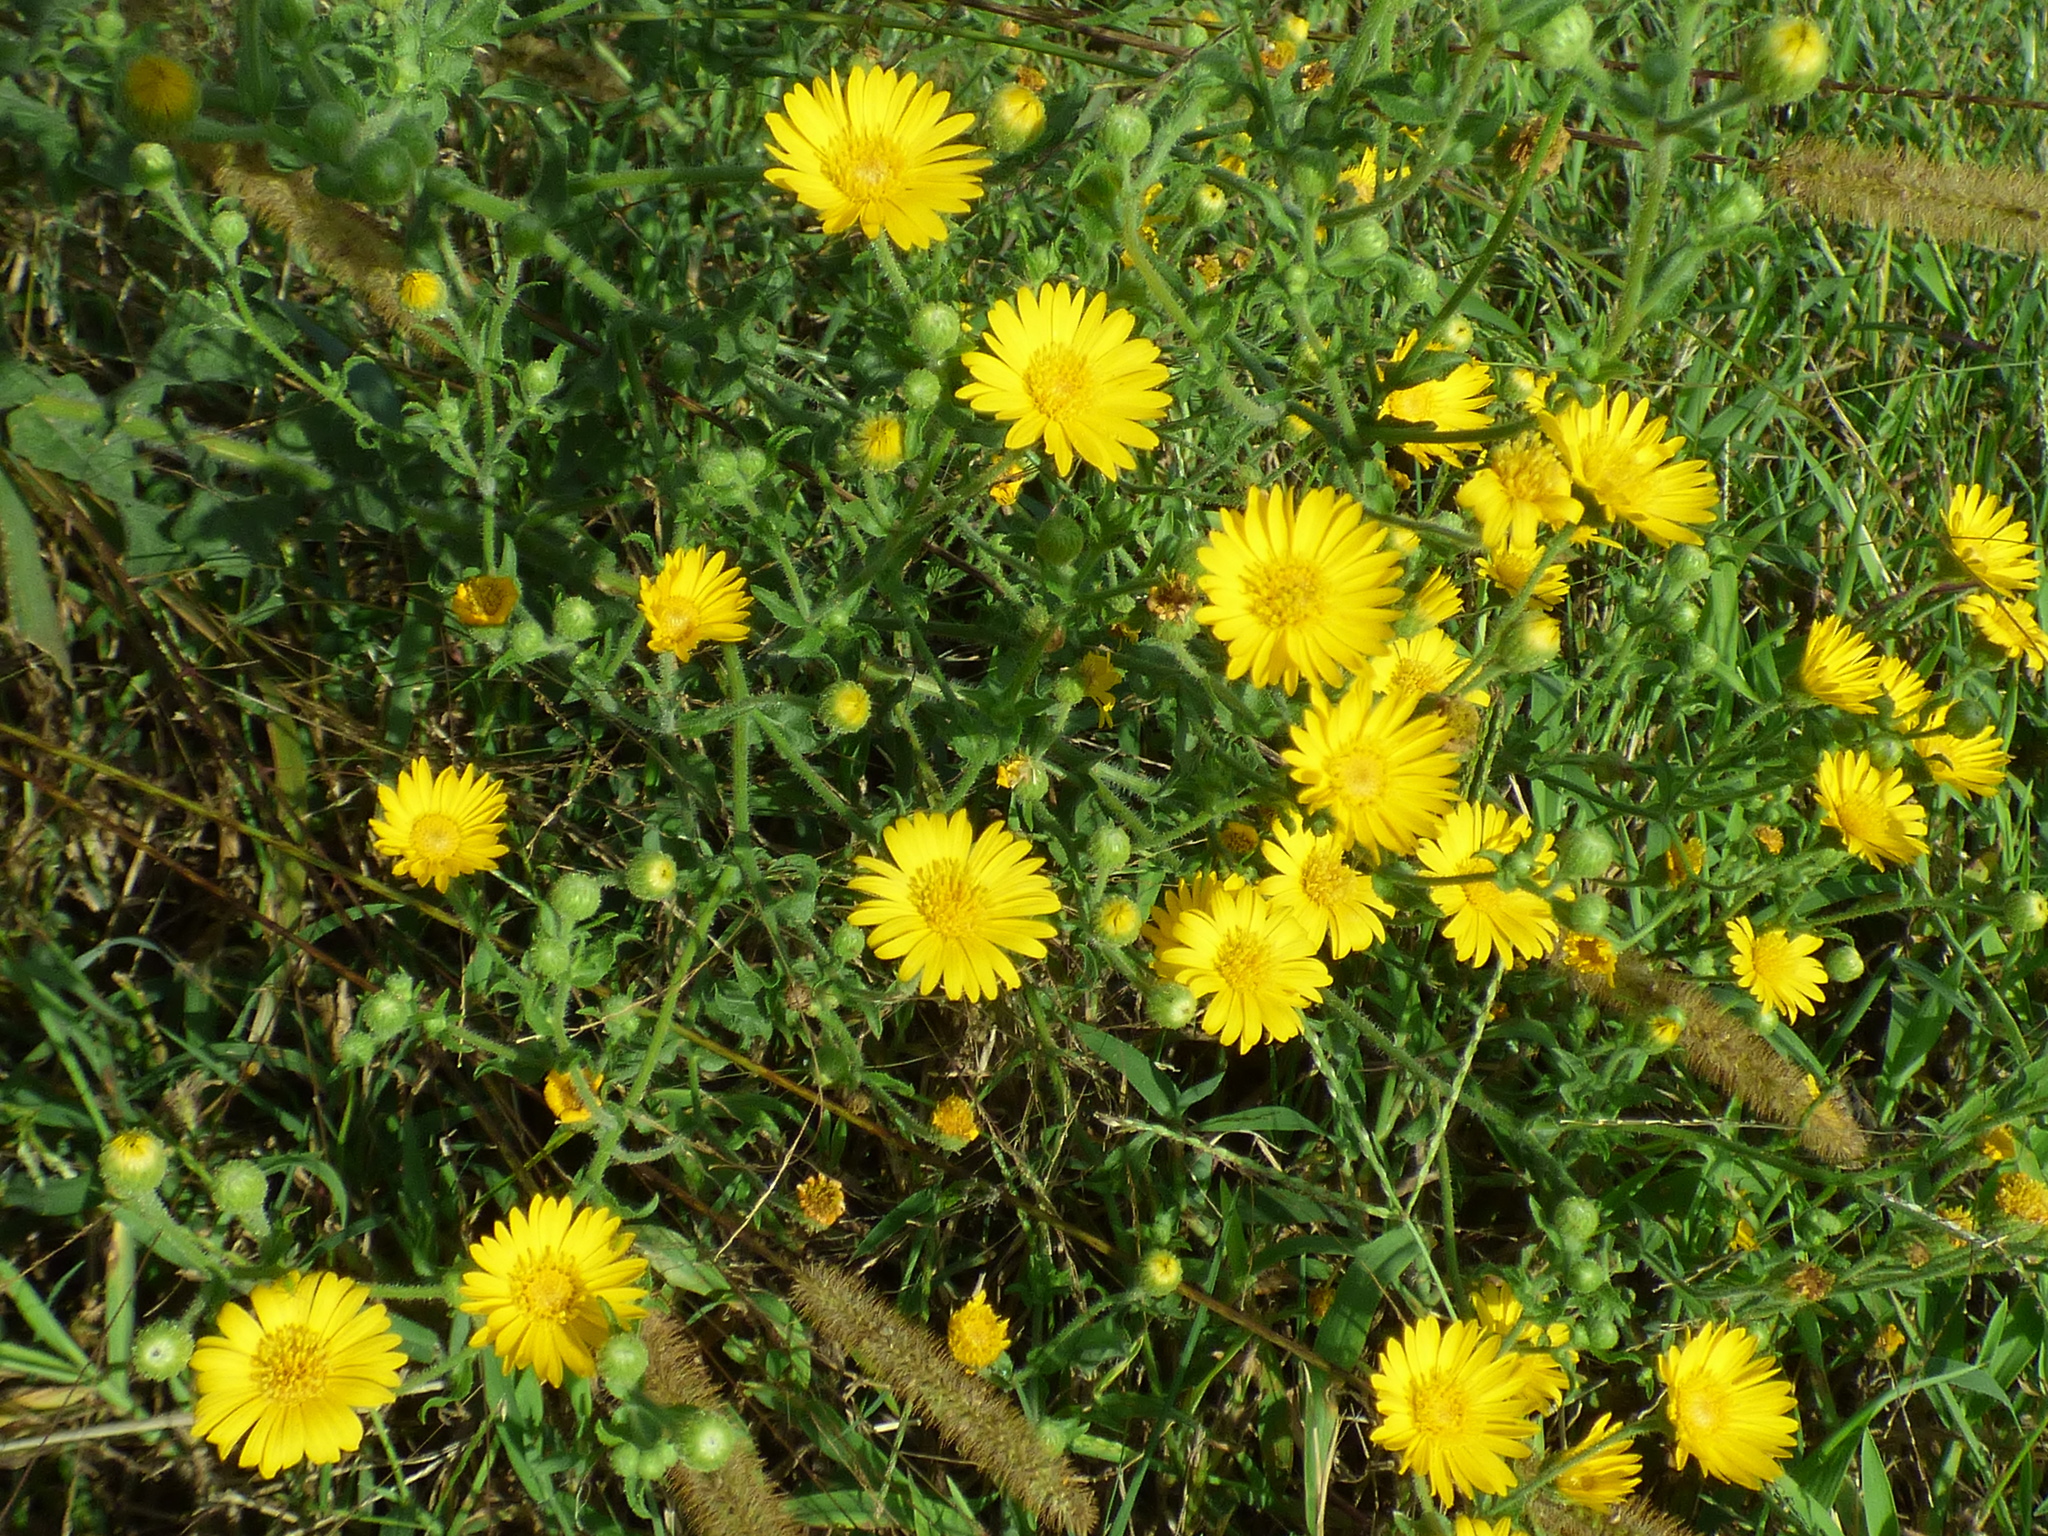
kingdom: Plantae
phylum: Tracheophyta
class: Magnoliopsida
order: Asterales
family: Asteraceae
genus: Heterotheca
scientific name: Heterotheca subaxillaris
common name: Camphorweed
